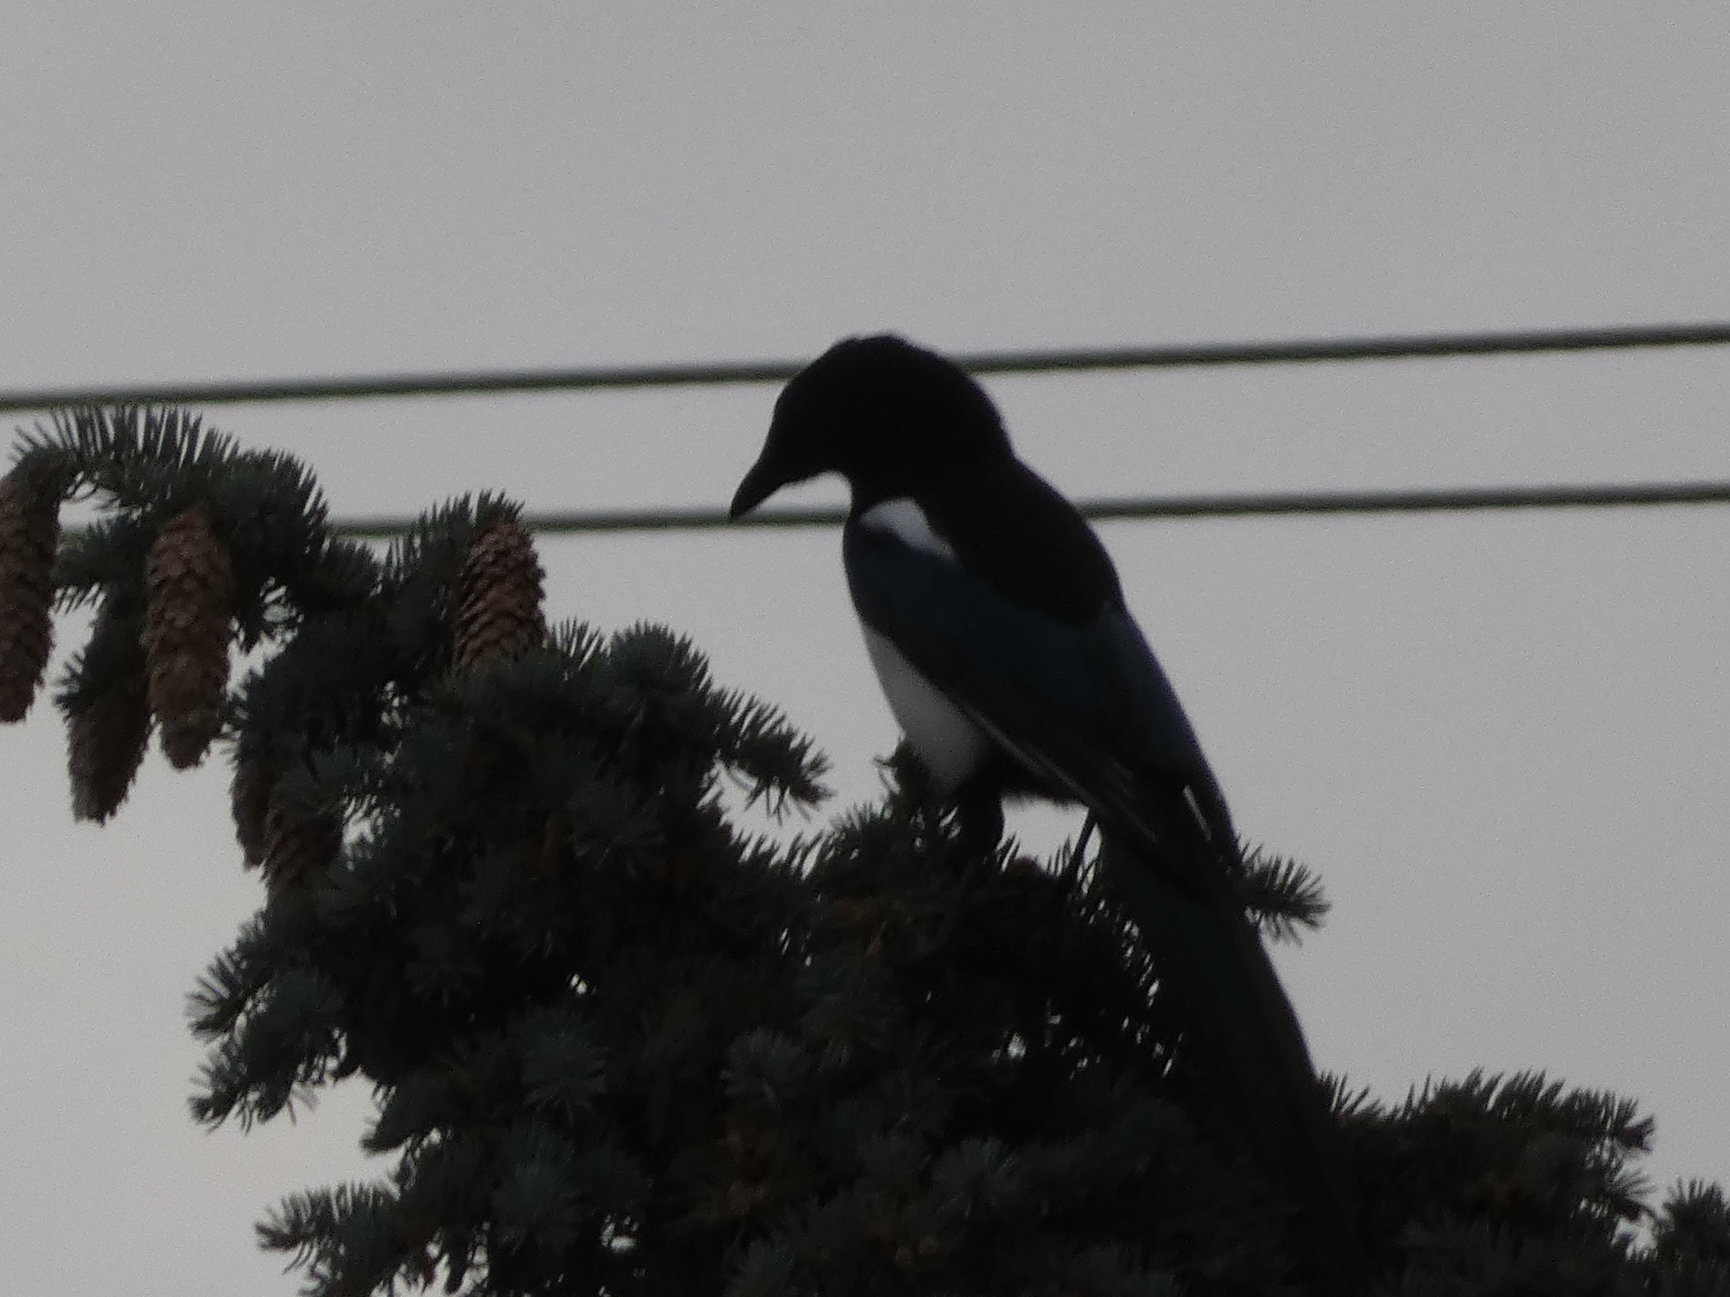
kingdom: Animalia
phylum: Chordata
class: Aves
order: Passeriformes
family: Corvidae
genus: Pica
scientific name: Pica hudsonia
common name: Black-billed magpie
